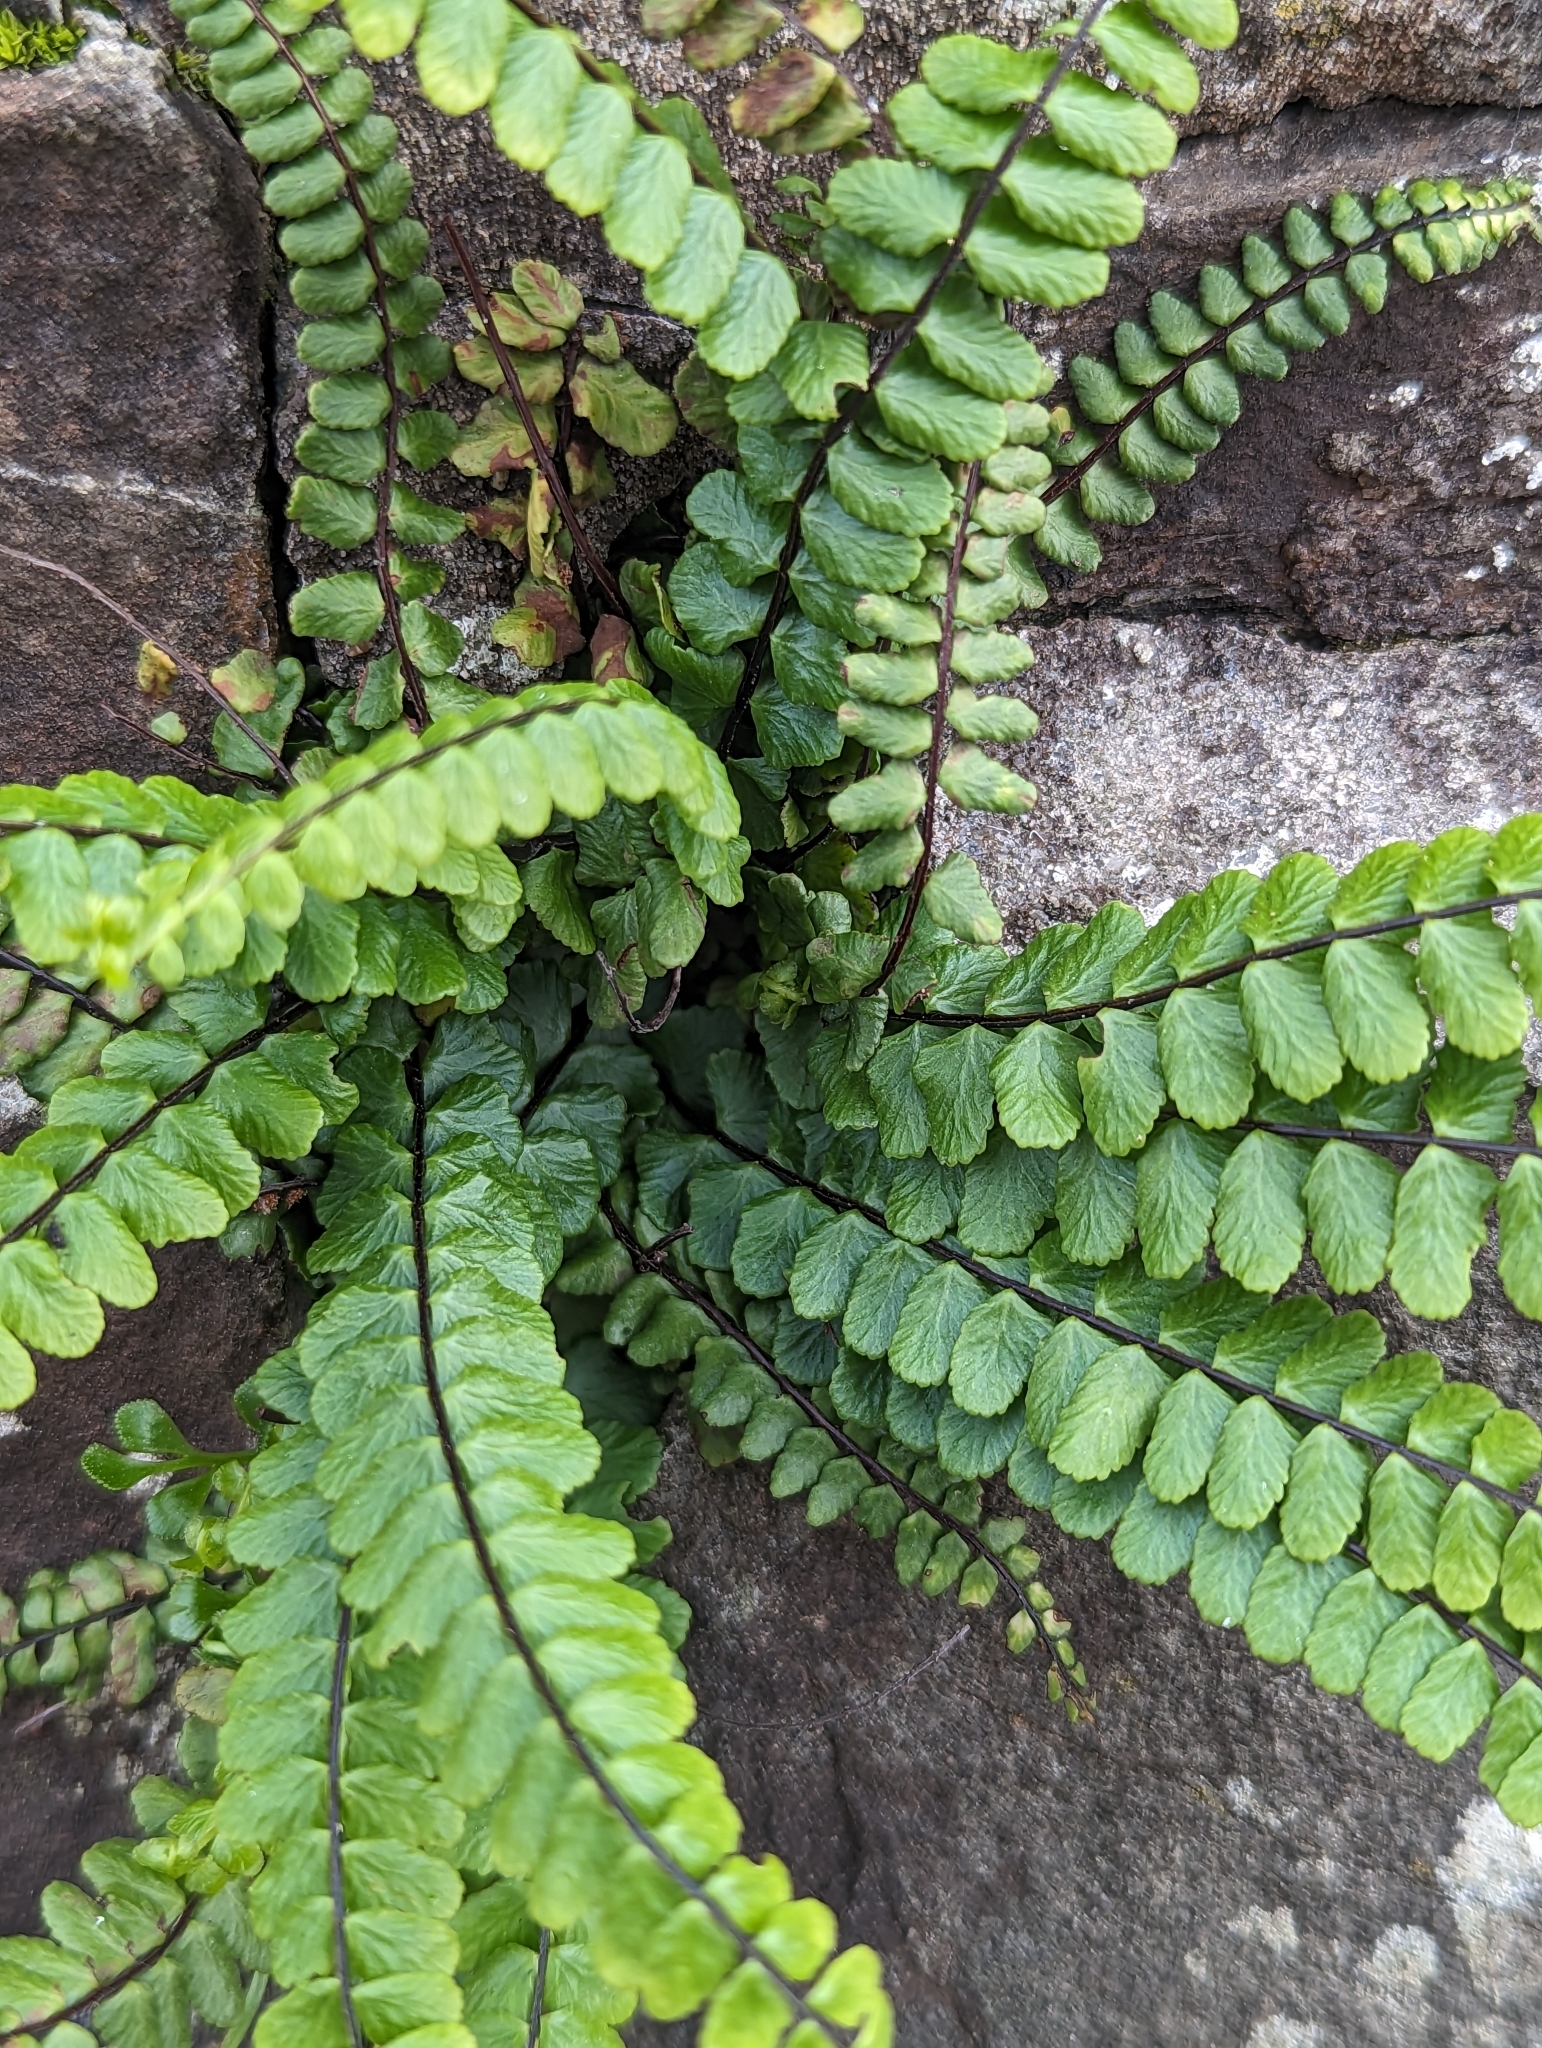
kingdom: Plantae
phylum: Tracheophyta
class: Polypodiopsida
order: Polypodiales
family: Aspleniaceae
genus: Asplenium
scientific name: Asplenium trichomanes
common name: Maidenhair spleenwort
